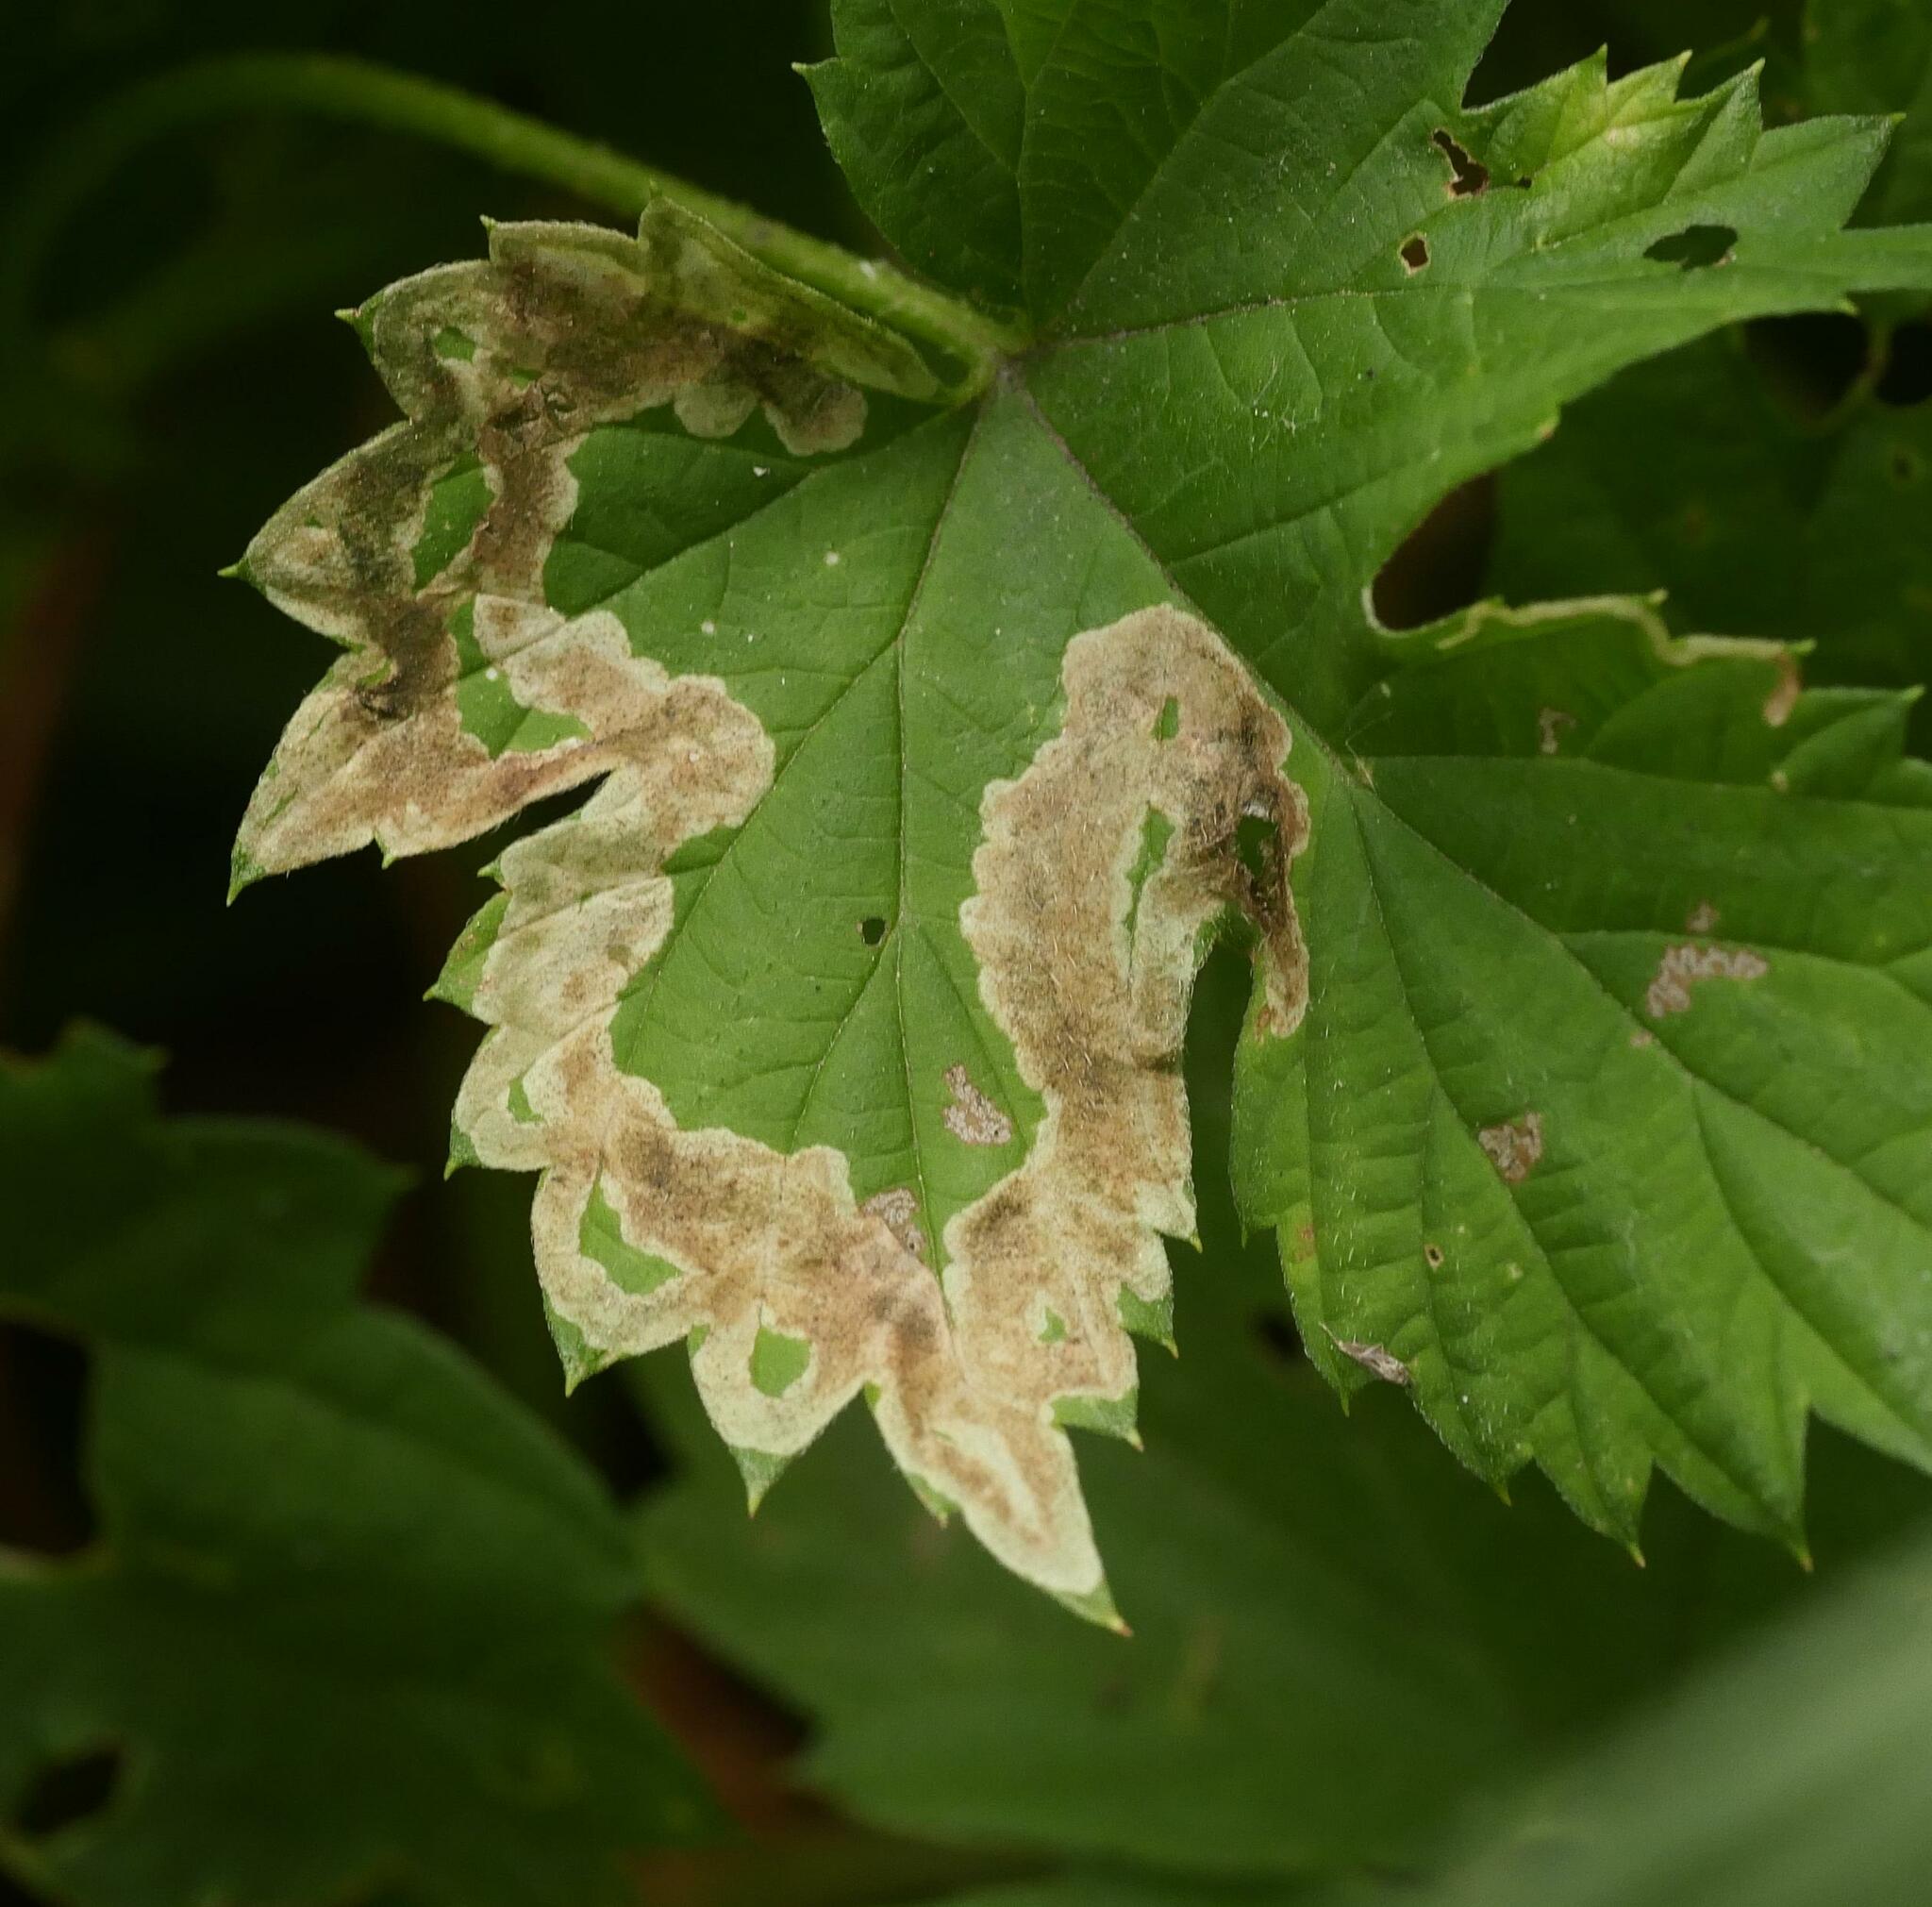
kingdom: Animalia
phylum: Arthropoda
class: Insecta
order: Diptera
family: Agromyzidae
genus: Agromyza
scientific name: Agromyza flaviceps
